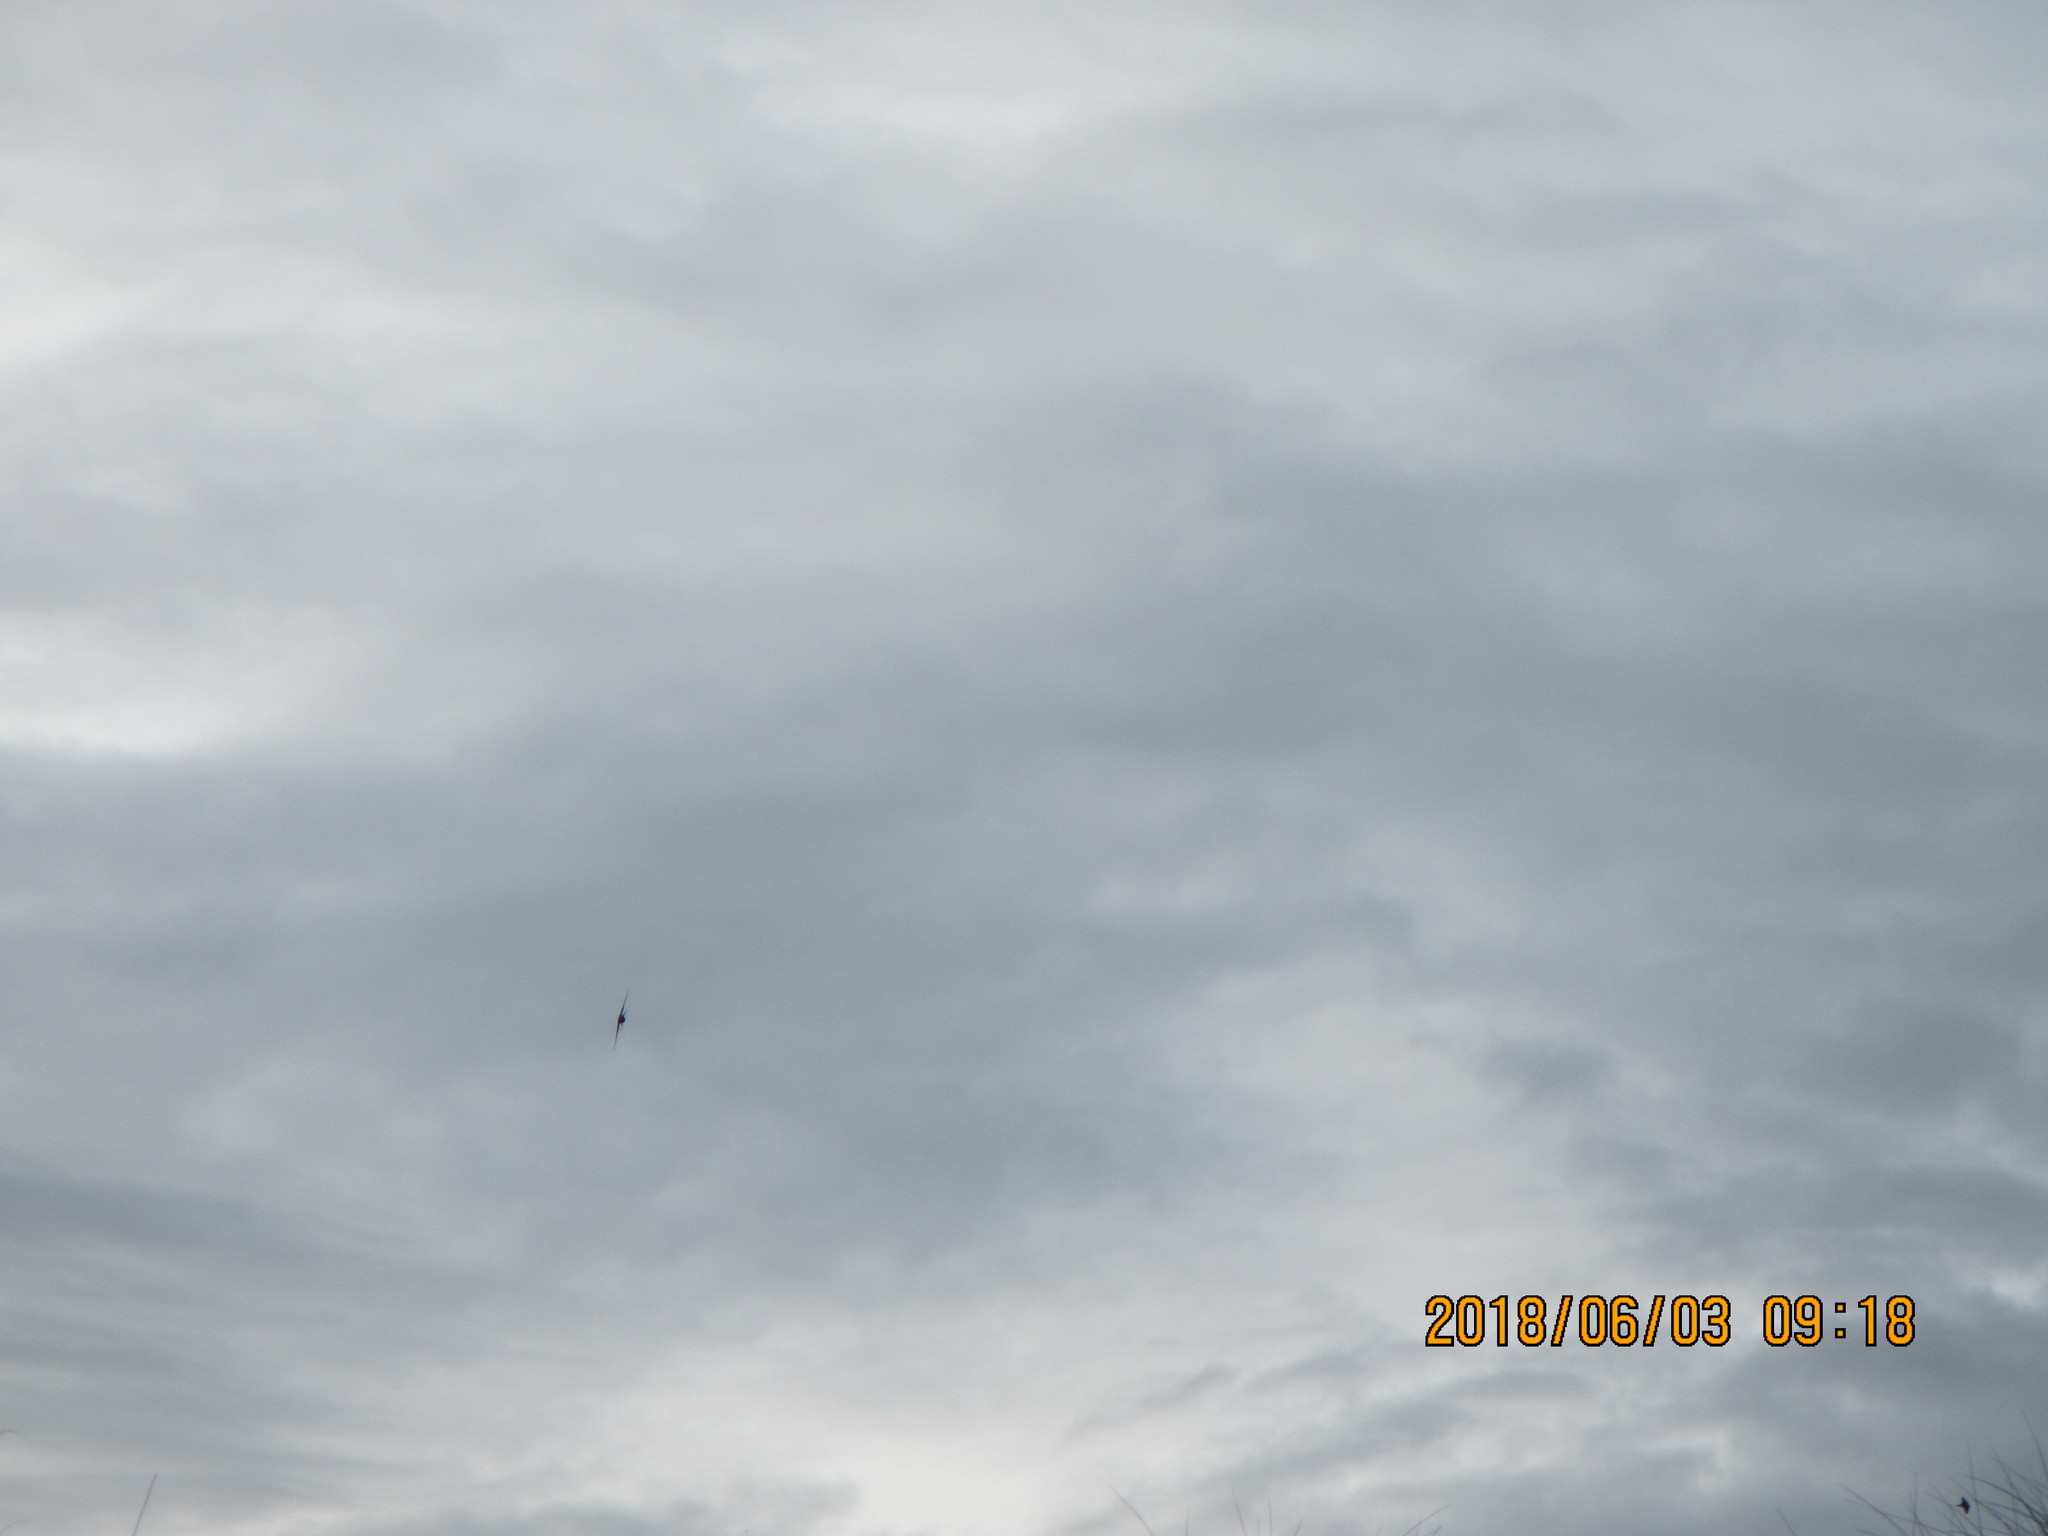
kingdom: Animalia
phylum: Chordata
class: Aves
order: Passeriformes
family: Hirundinidae
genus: Hirundo
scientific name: Hirundo neoxena
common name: Welcome swallow
